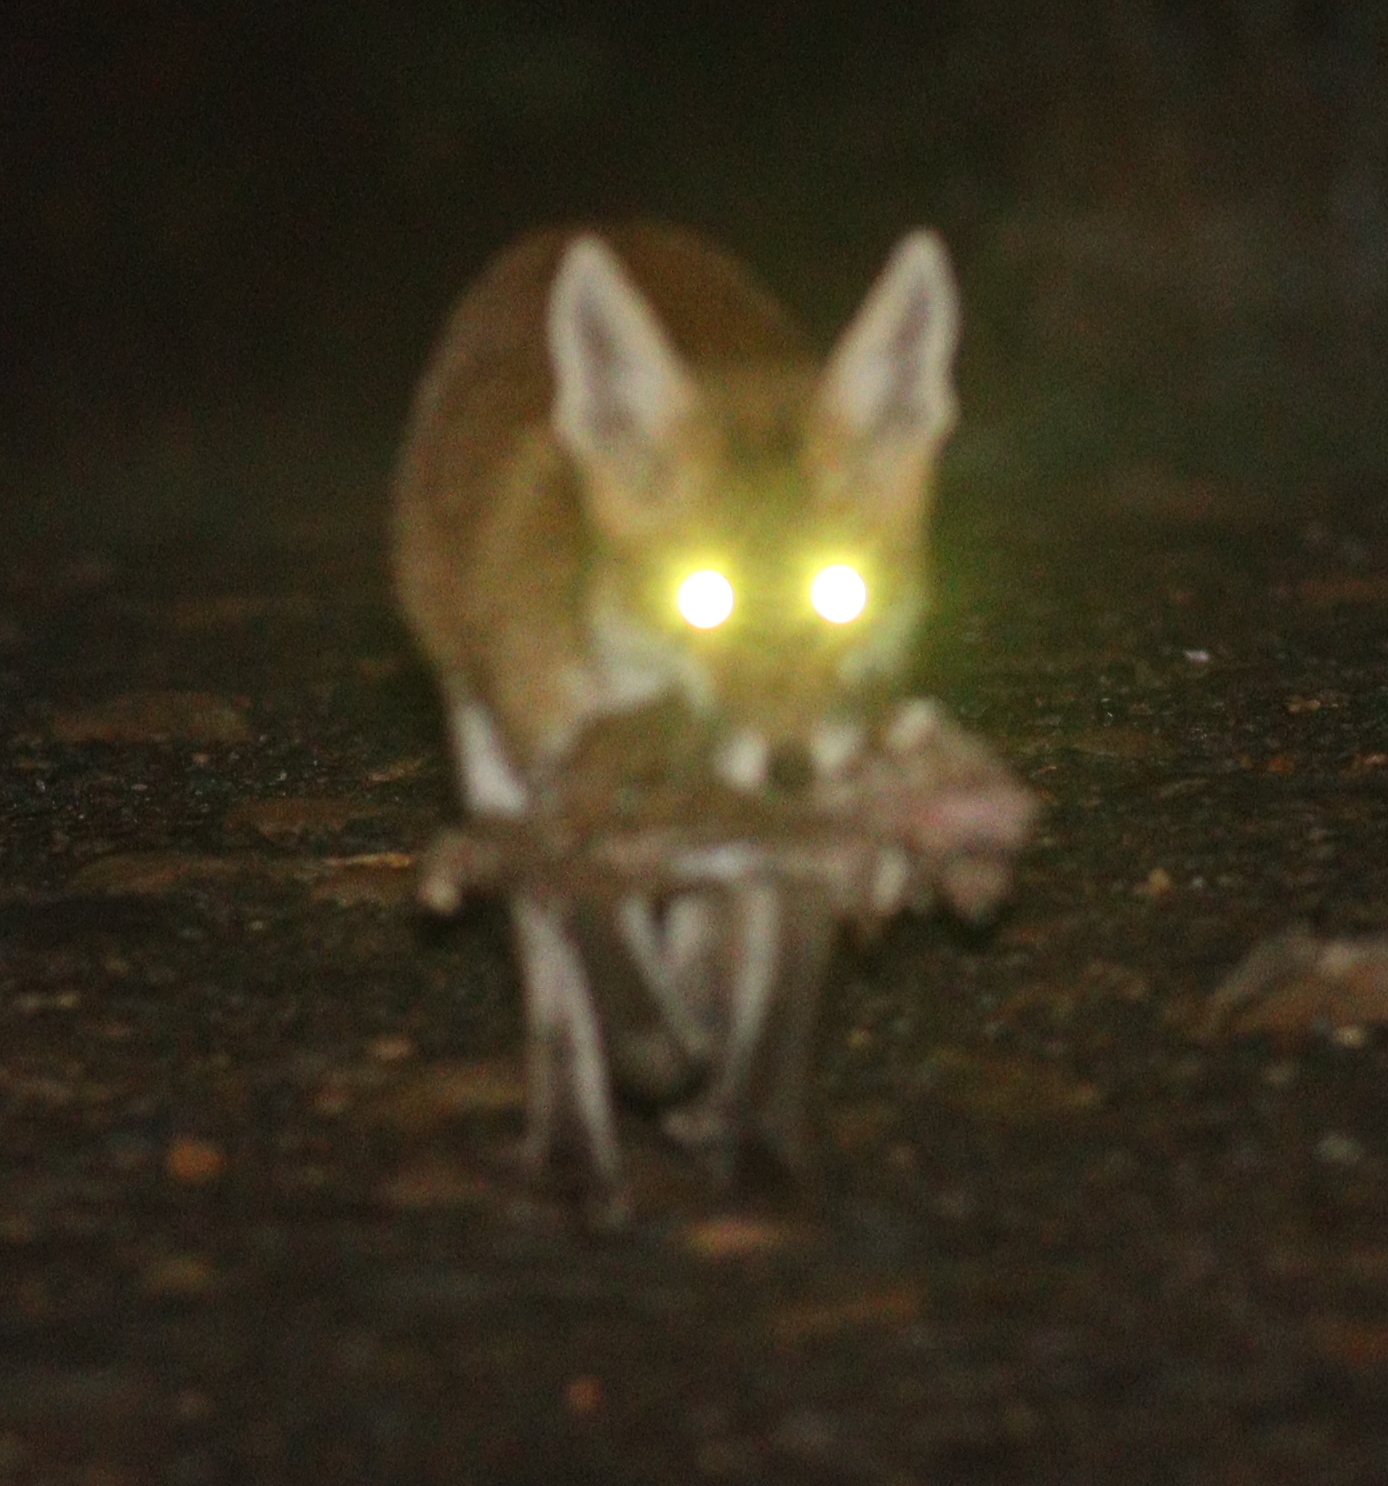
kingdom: Animalia
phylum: Chordata
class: Mammalia
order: Carnivora
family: Canidae
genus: Vulpes
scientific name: Vulpes vulpes
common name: Red fox
